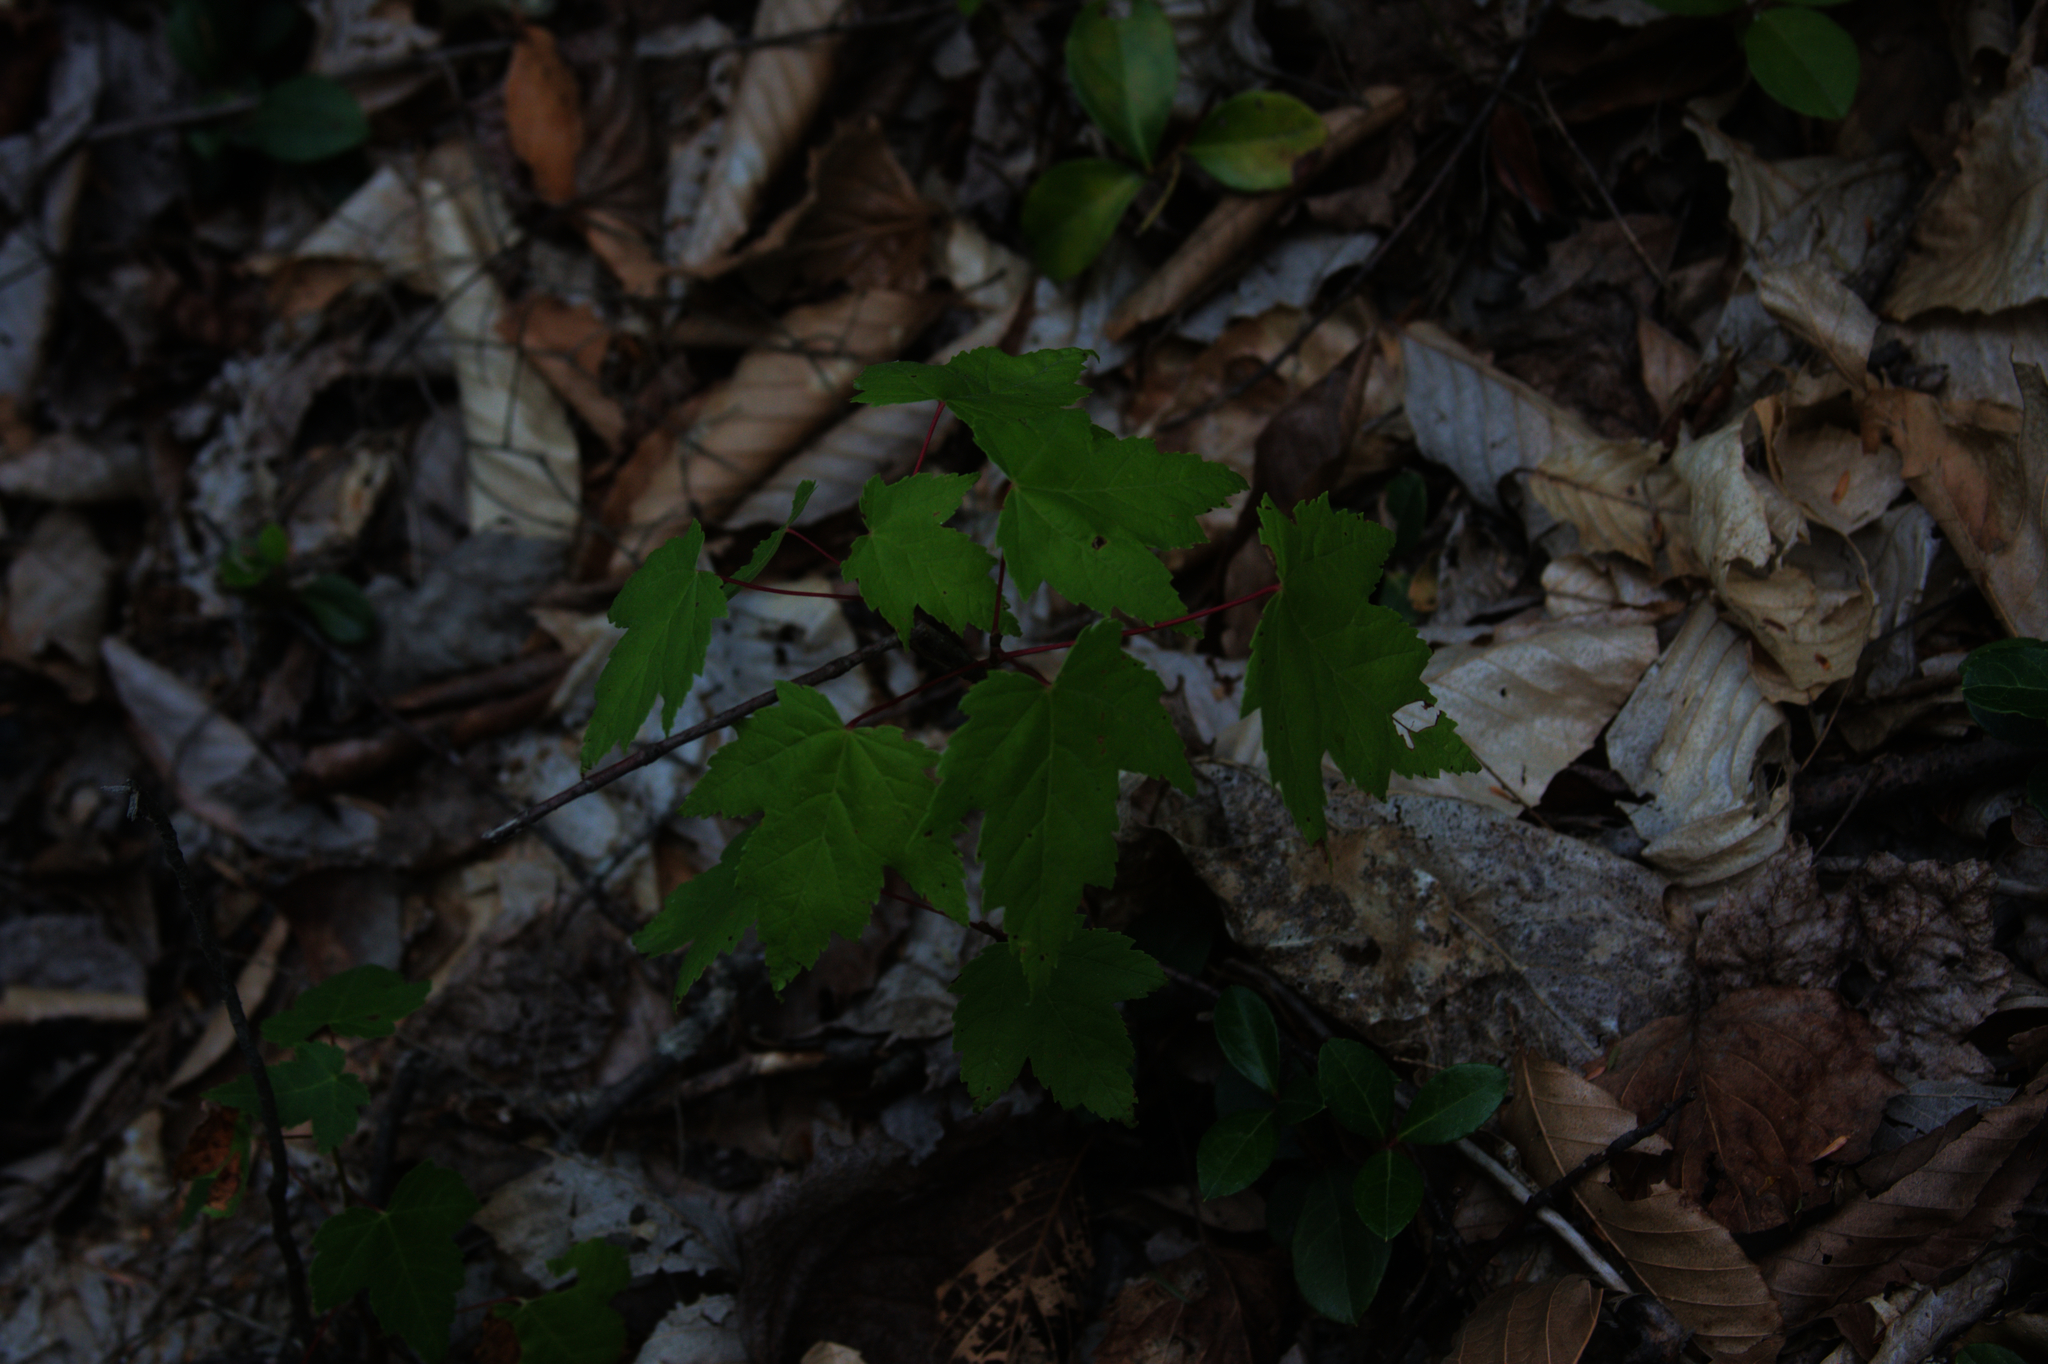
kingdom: Plantae
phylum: Tracheophyta
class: Magnoliopsida
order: Sapindales
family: Sapindaceae
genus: Acer
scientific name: Acer rubrum
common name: Red maple
